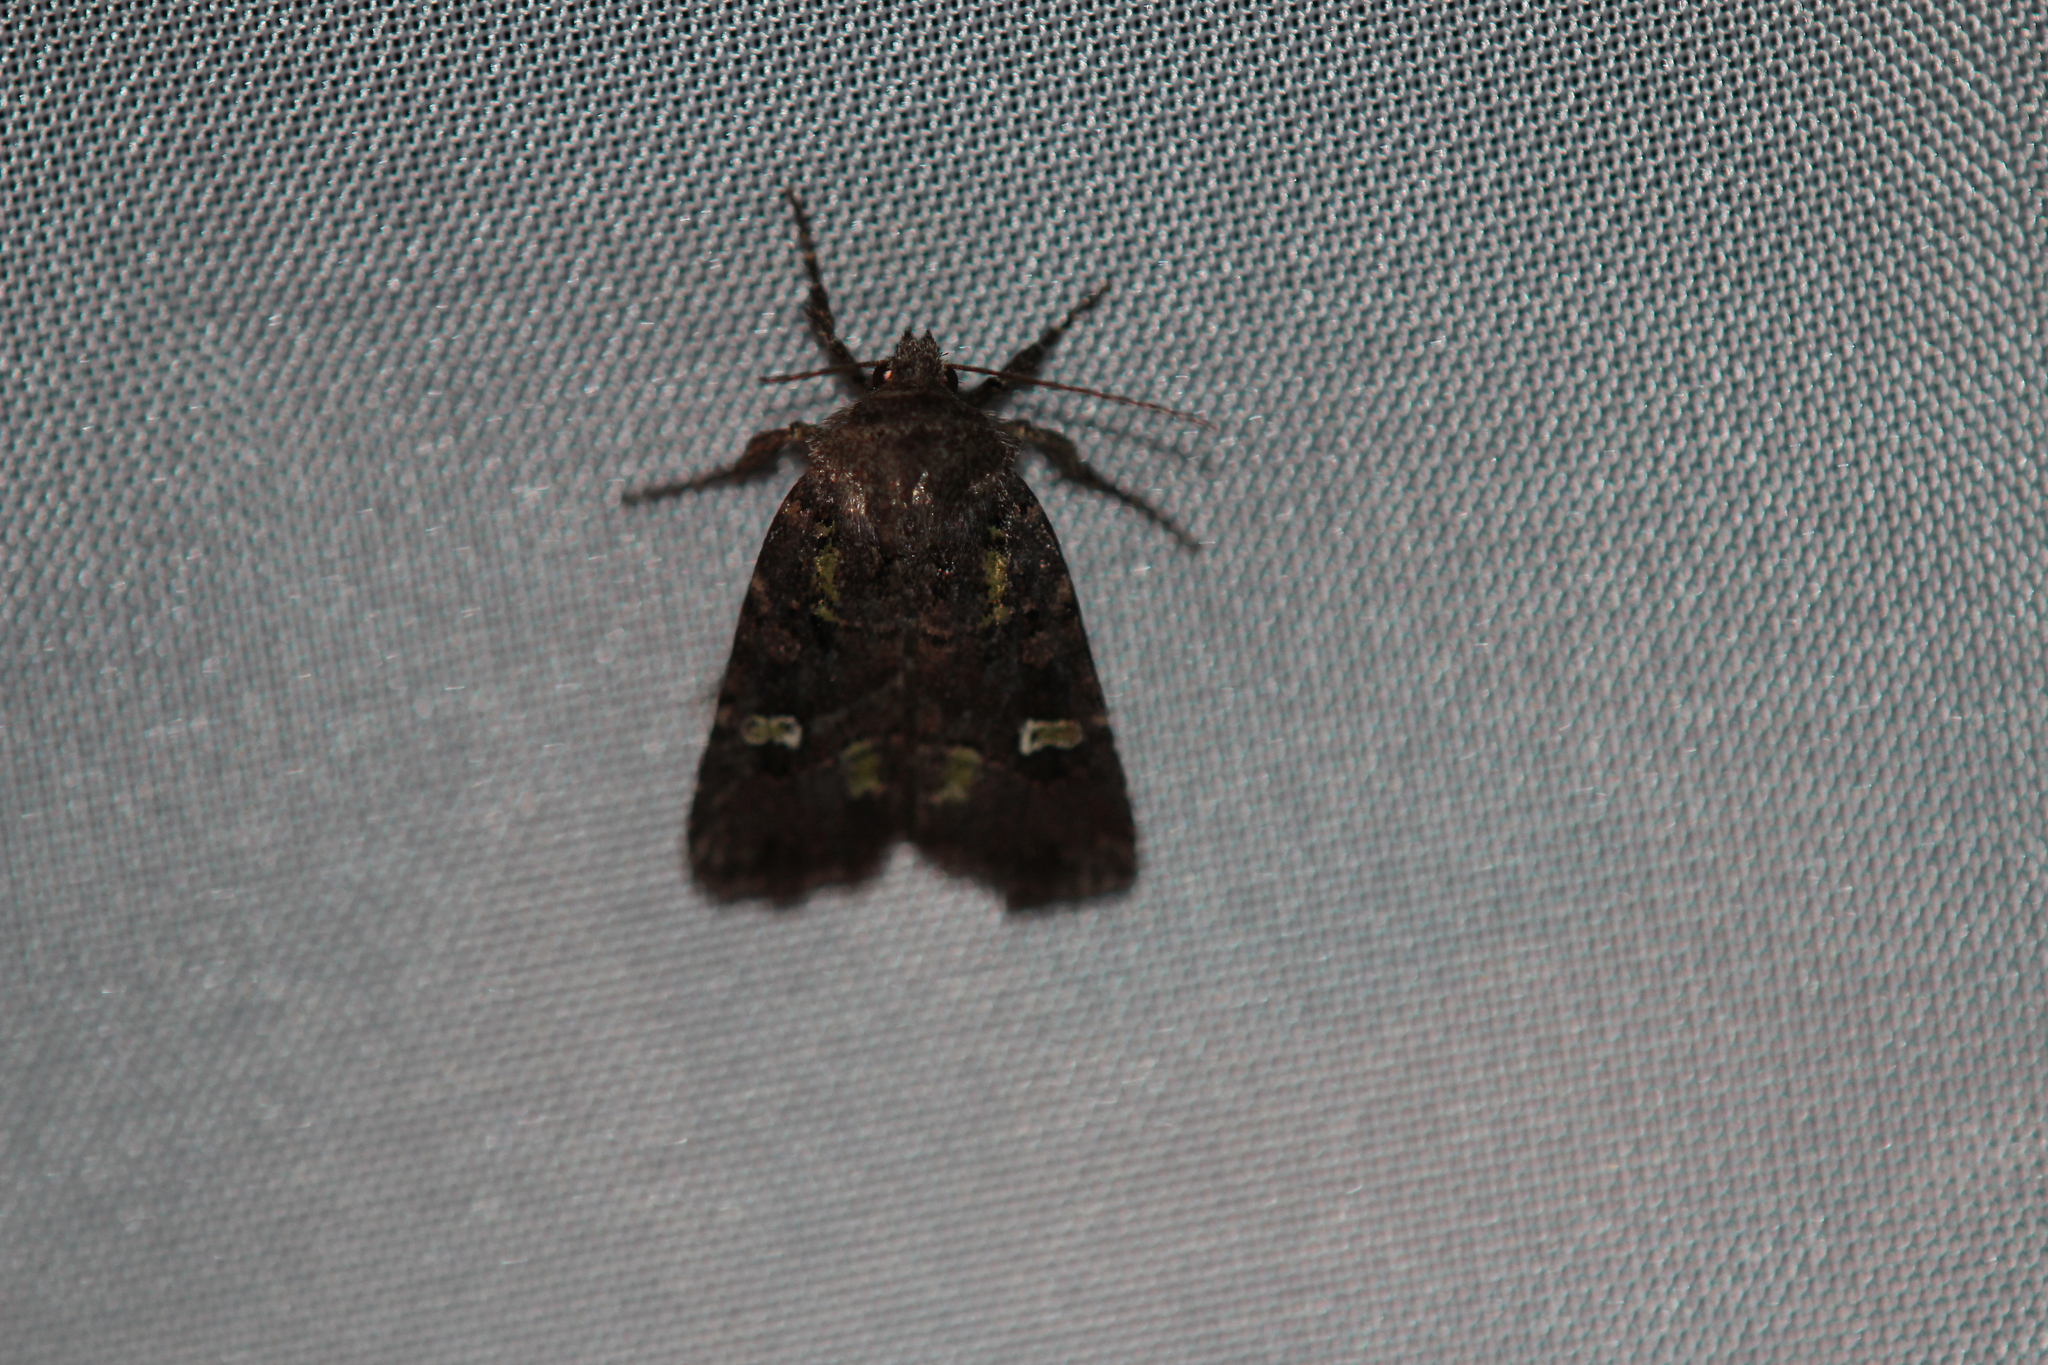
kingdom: Animalia
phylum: Arthropoda
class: Insecta
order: Lepidoptera
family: Noctuidae
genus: Lacinipolia
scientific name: Lacinipolia renigera
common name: Kidney-spotted minor
